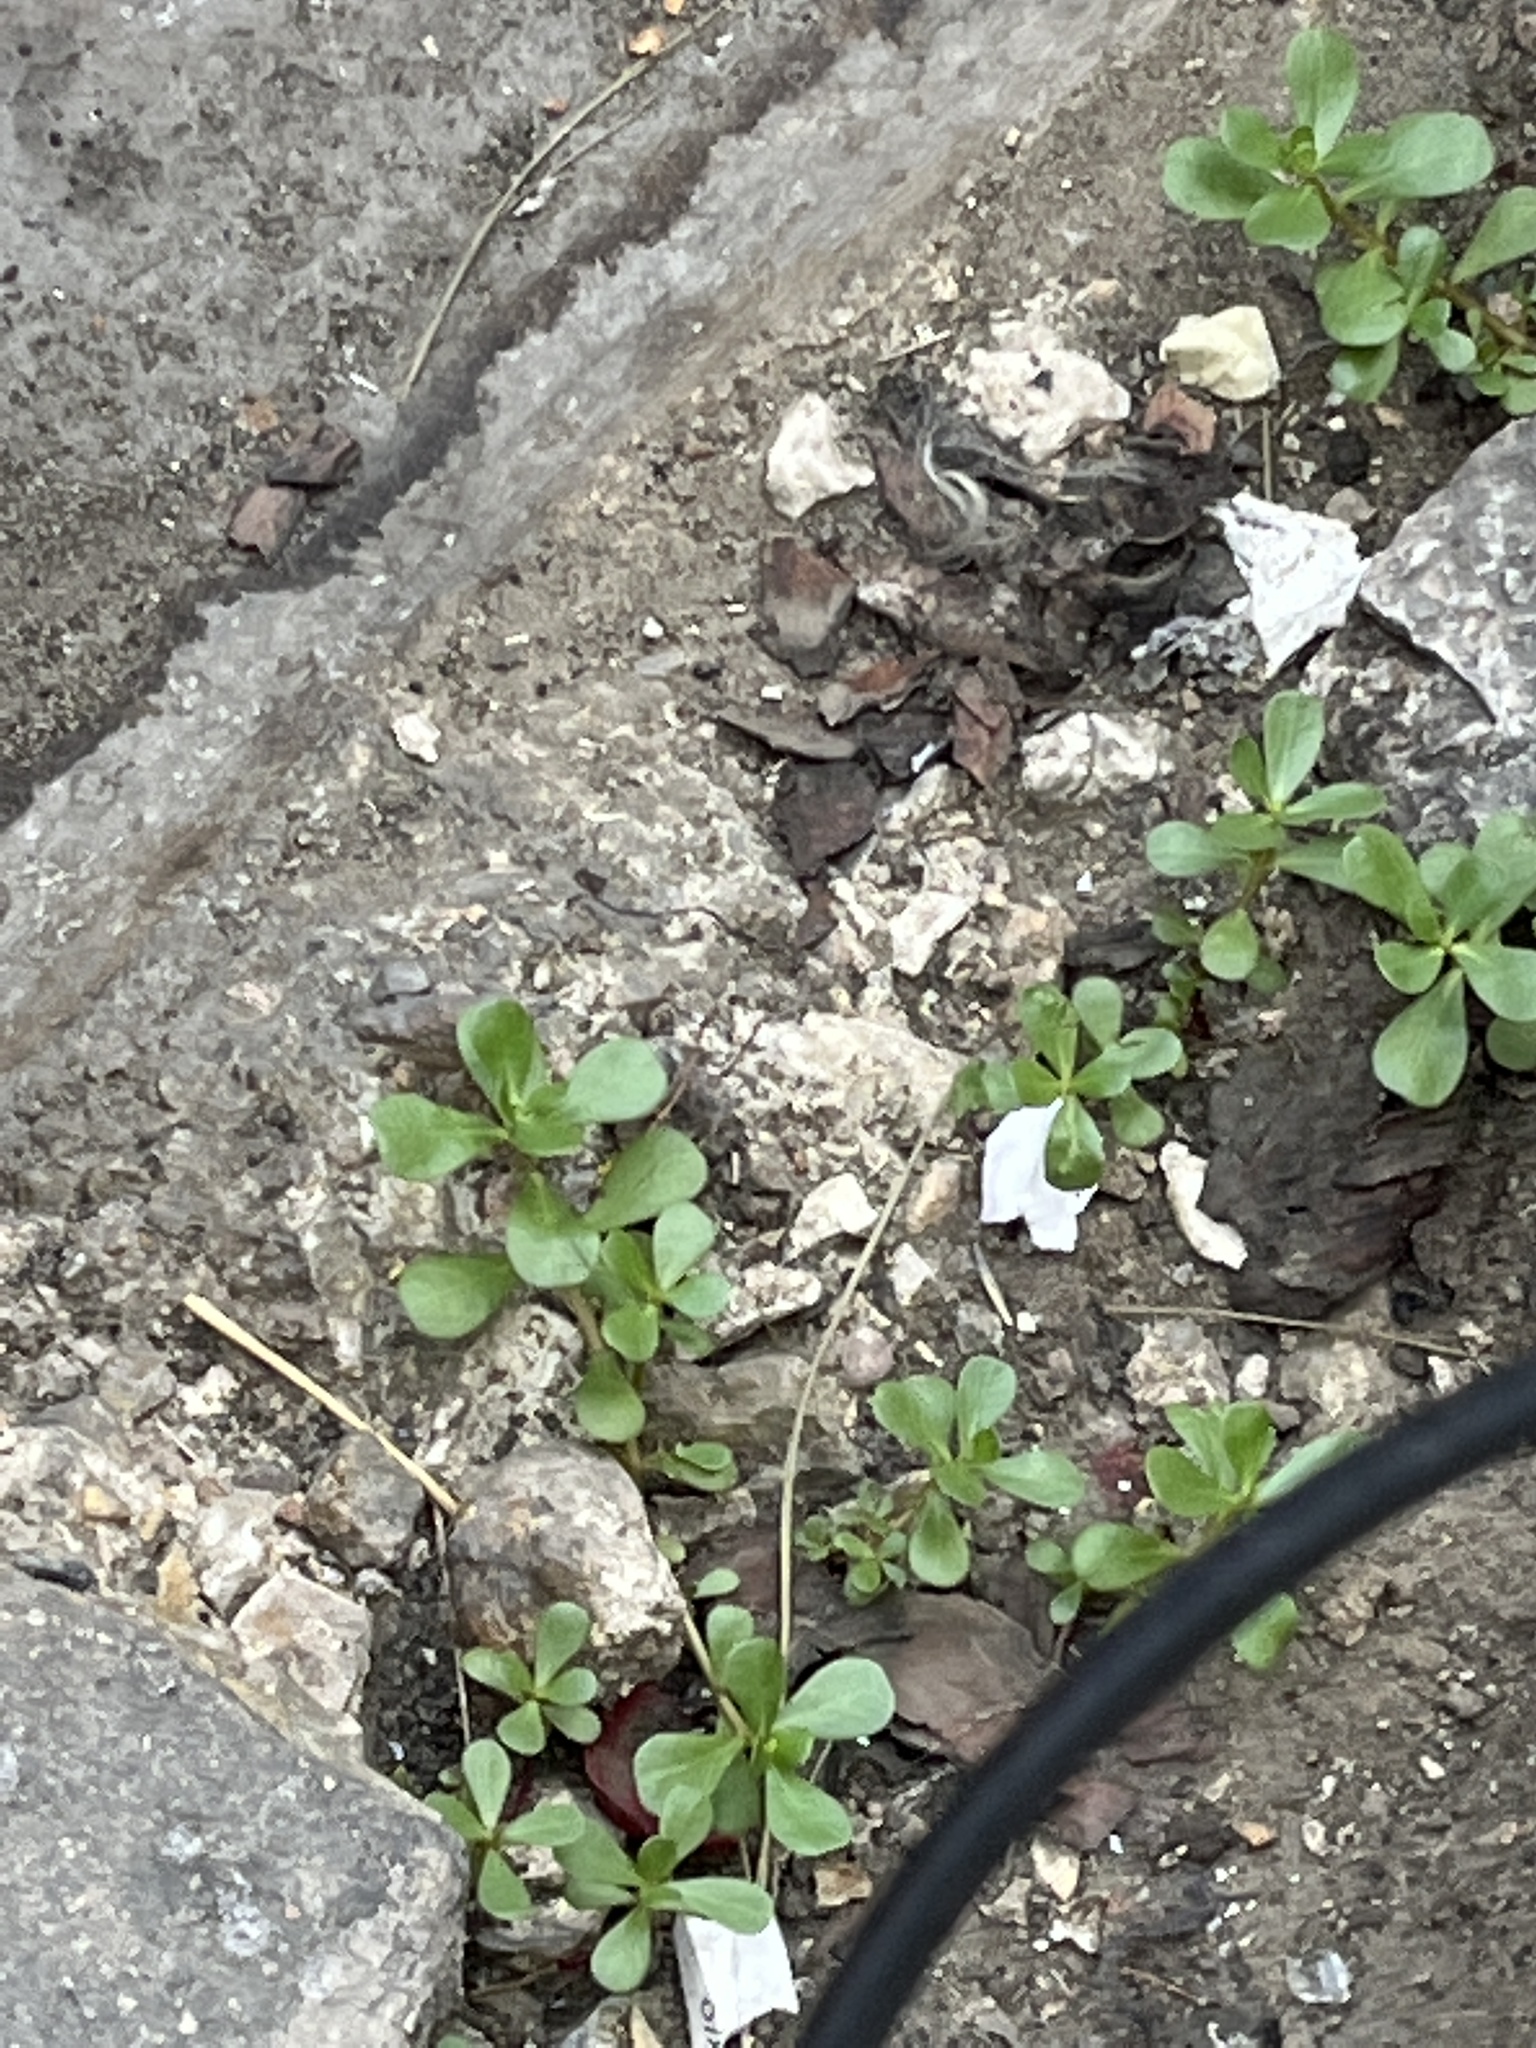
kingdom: Plantae
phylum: Tracheophyta
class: Magnoliopsida
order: Caryophyllales
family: Portulacaceae
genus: Portulaca
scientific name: Portulaca oleracea
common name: Common purslane
